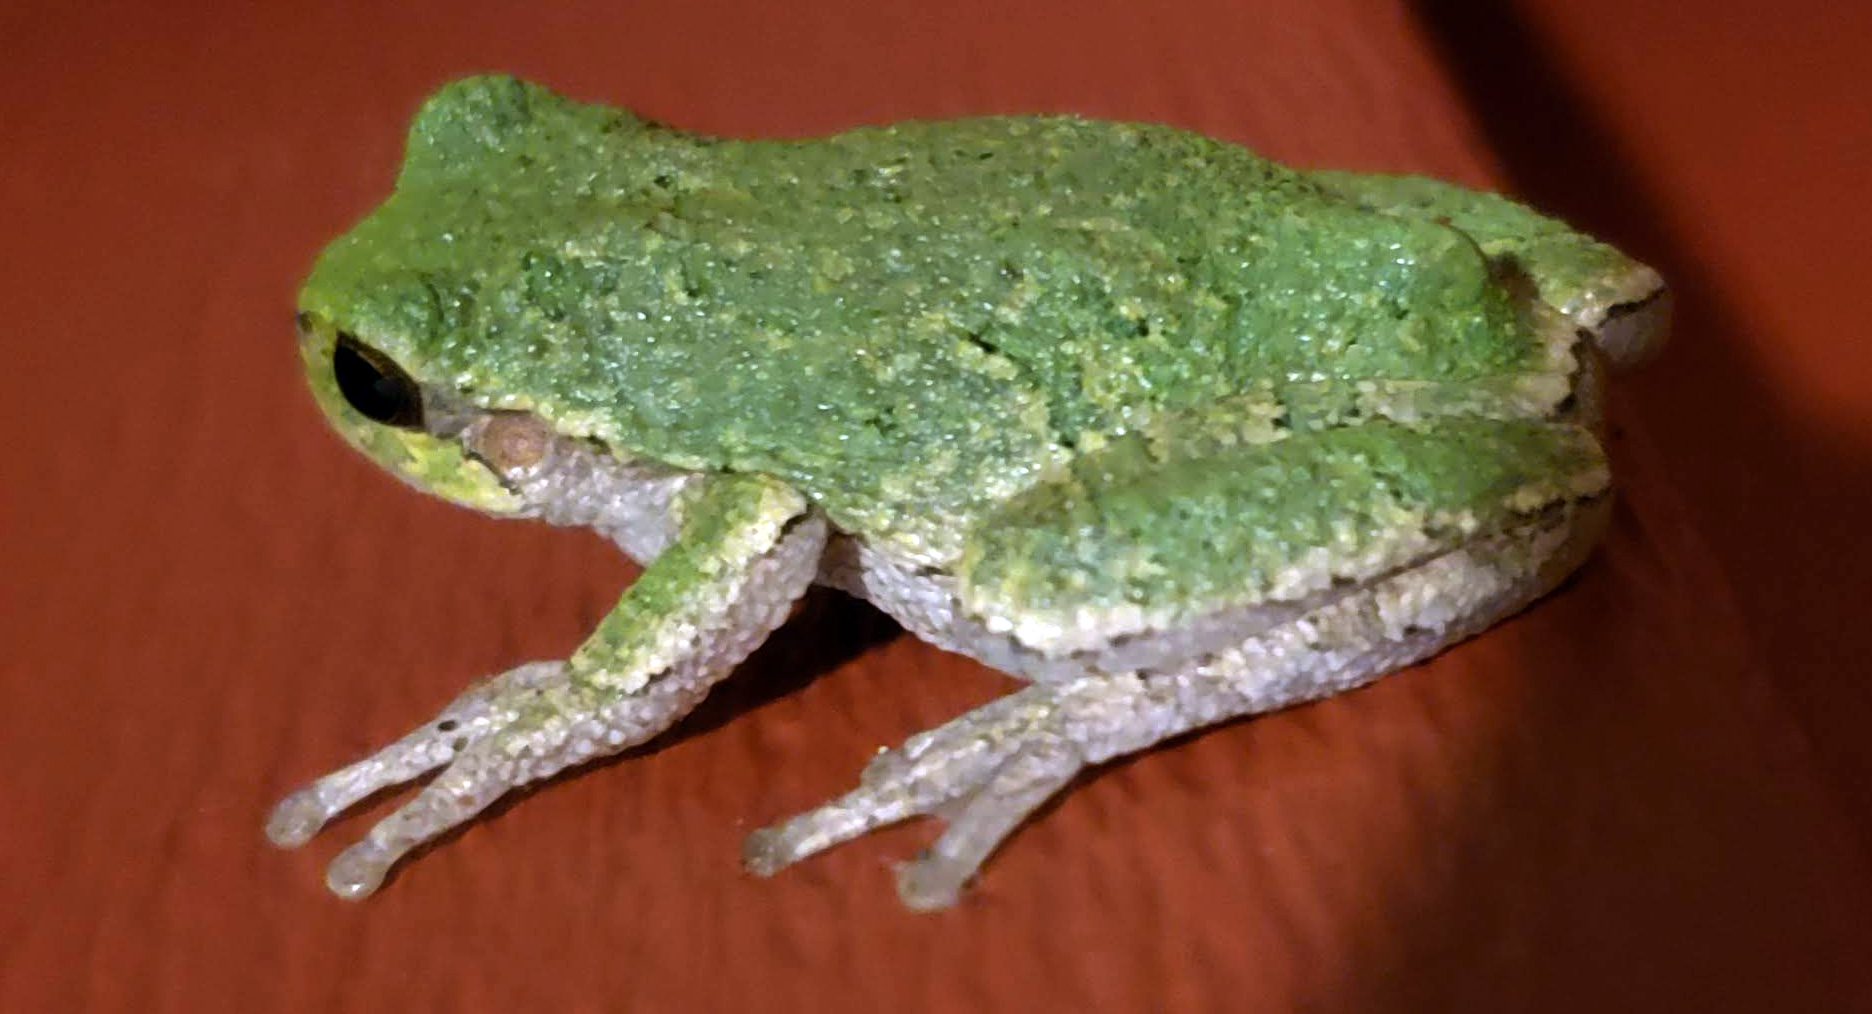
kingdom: Animalia
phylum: Chordata
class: Amphibia
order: Anura
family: Hylidae
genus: Hyla
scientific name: Hyla
